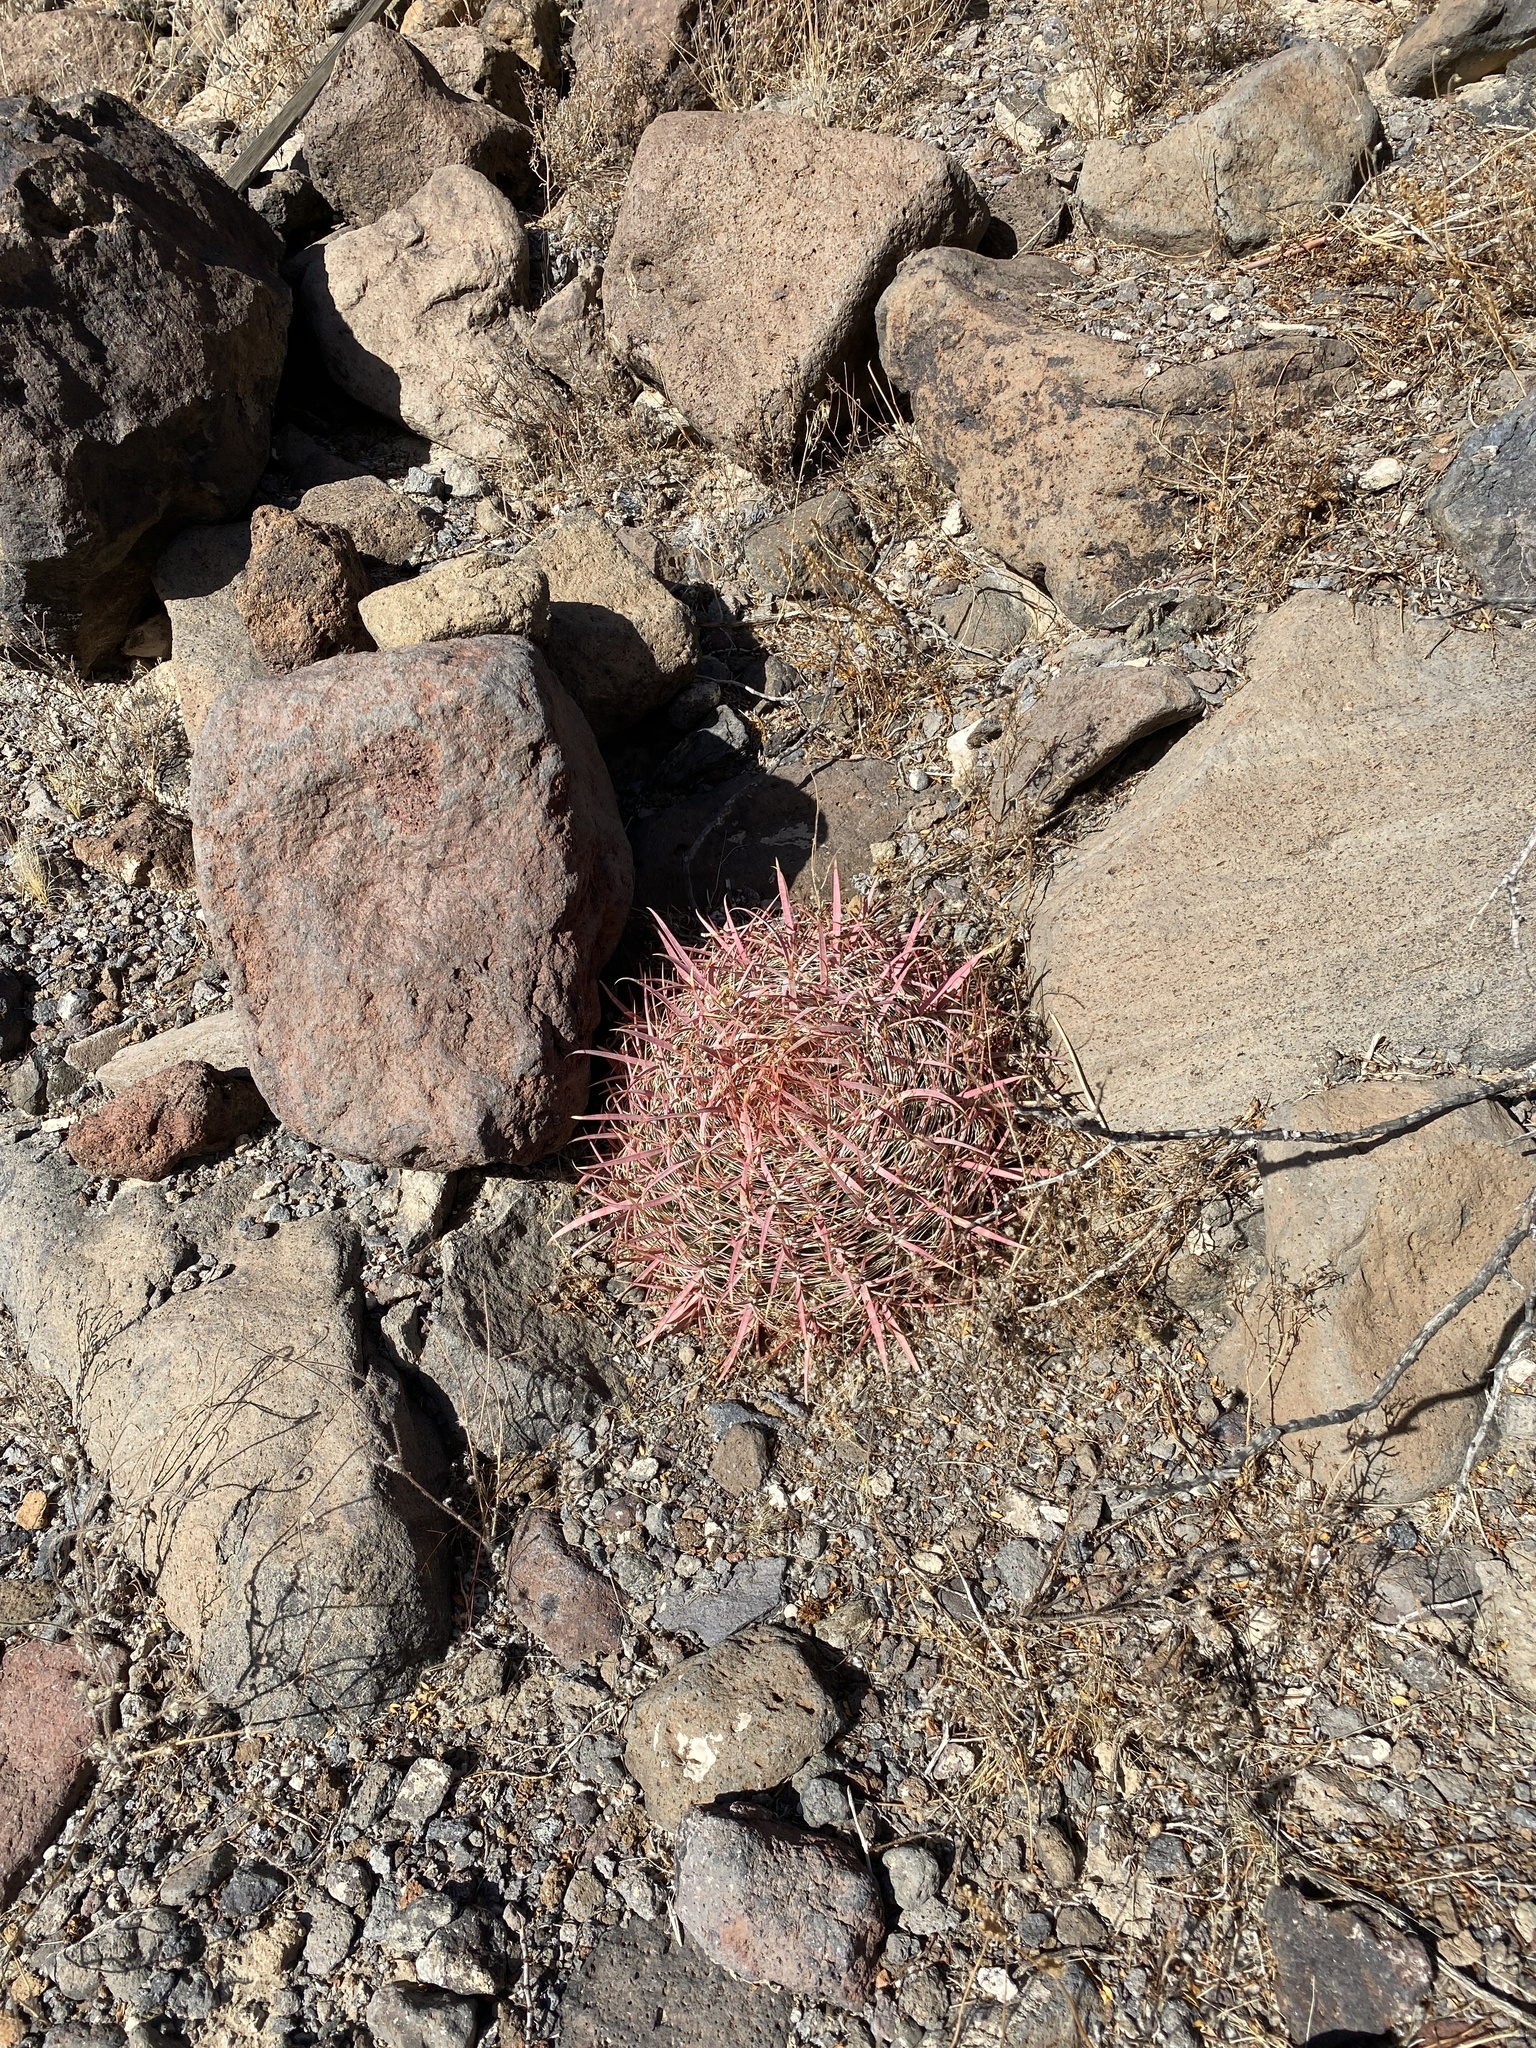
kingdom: Plantae
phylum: Tracheophyta
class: Magnoliopsida
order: Caryophyllales
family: Cactaceae
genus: Ferocactus
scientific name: Ferocactus cylindraceus
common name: California barrel cactus
